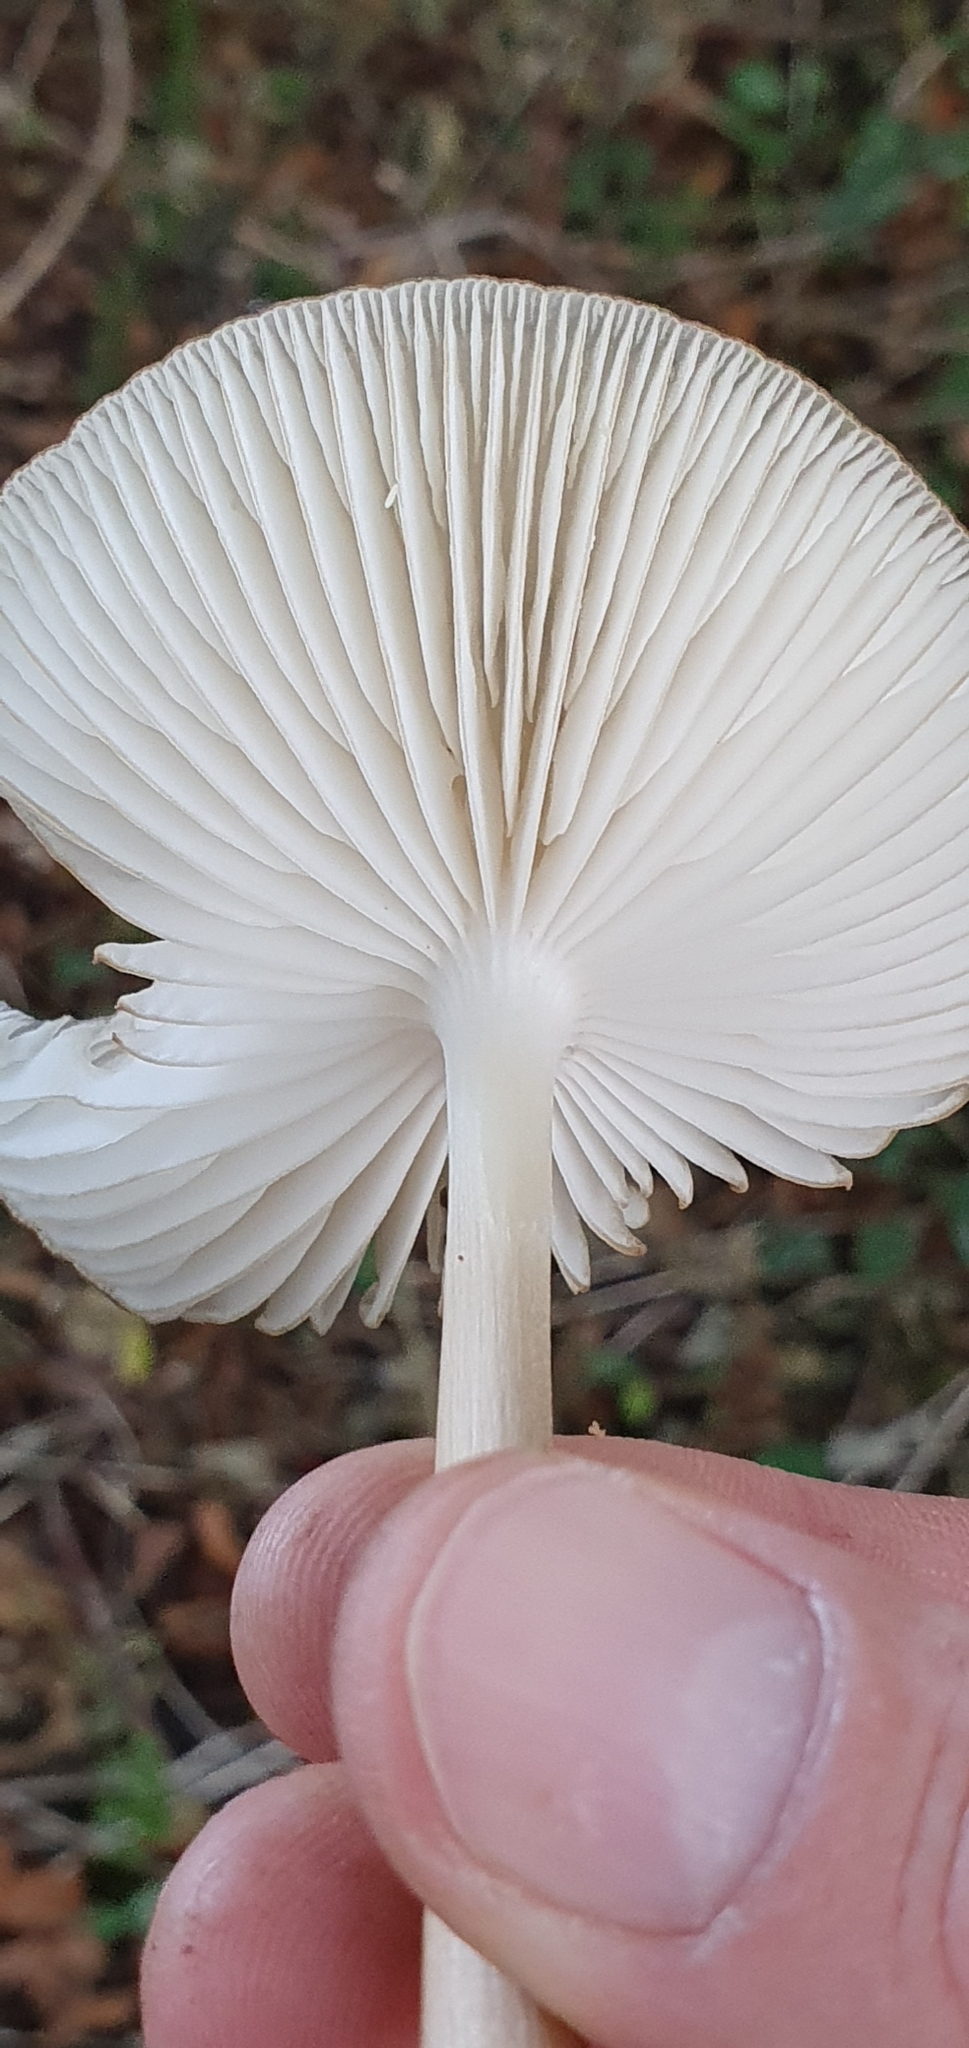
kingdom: Fungi
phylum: Basidiomycota
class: Agaricomycetes
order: Agaricales
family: Physalacriaceae
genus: Hymenopellis
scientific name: Hymenopellis radicata
